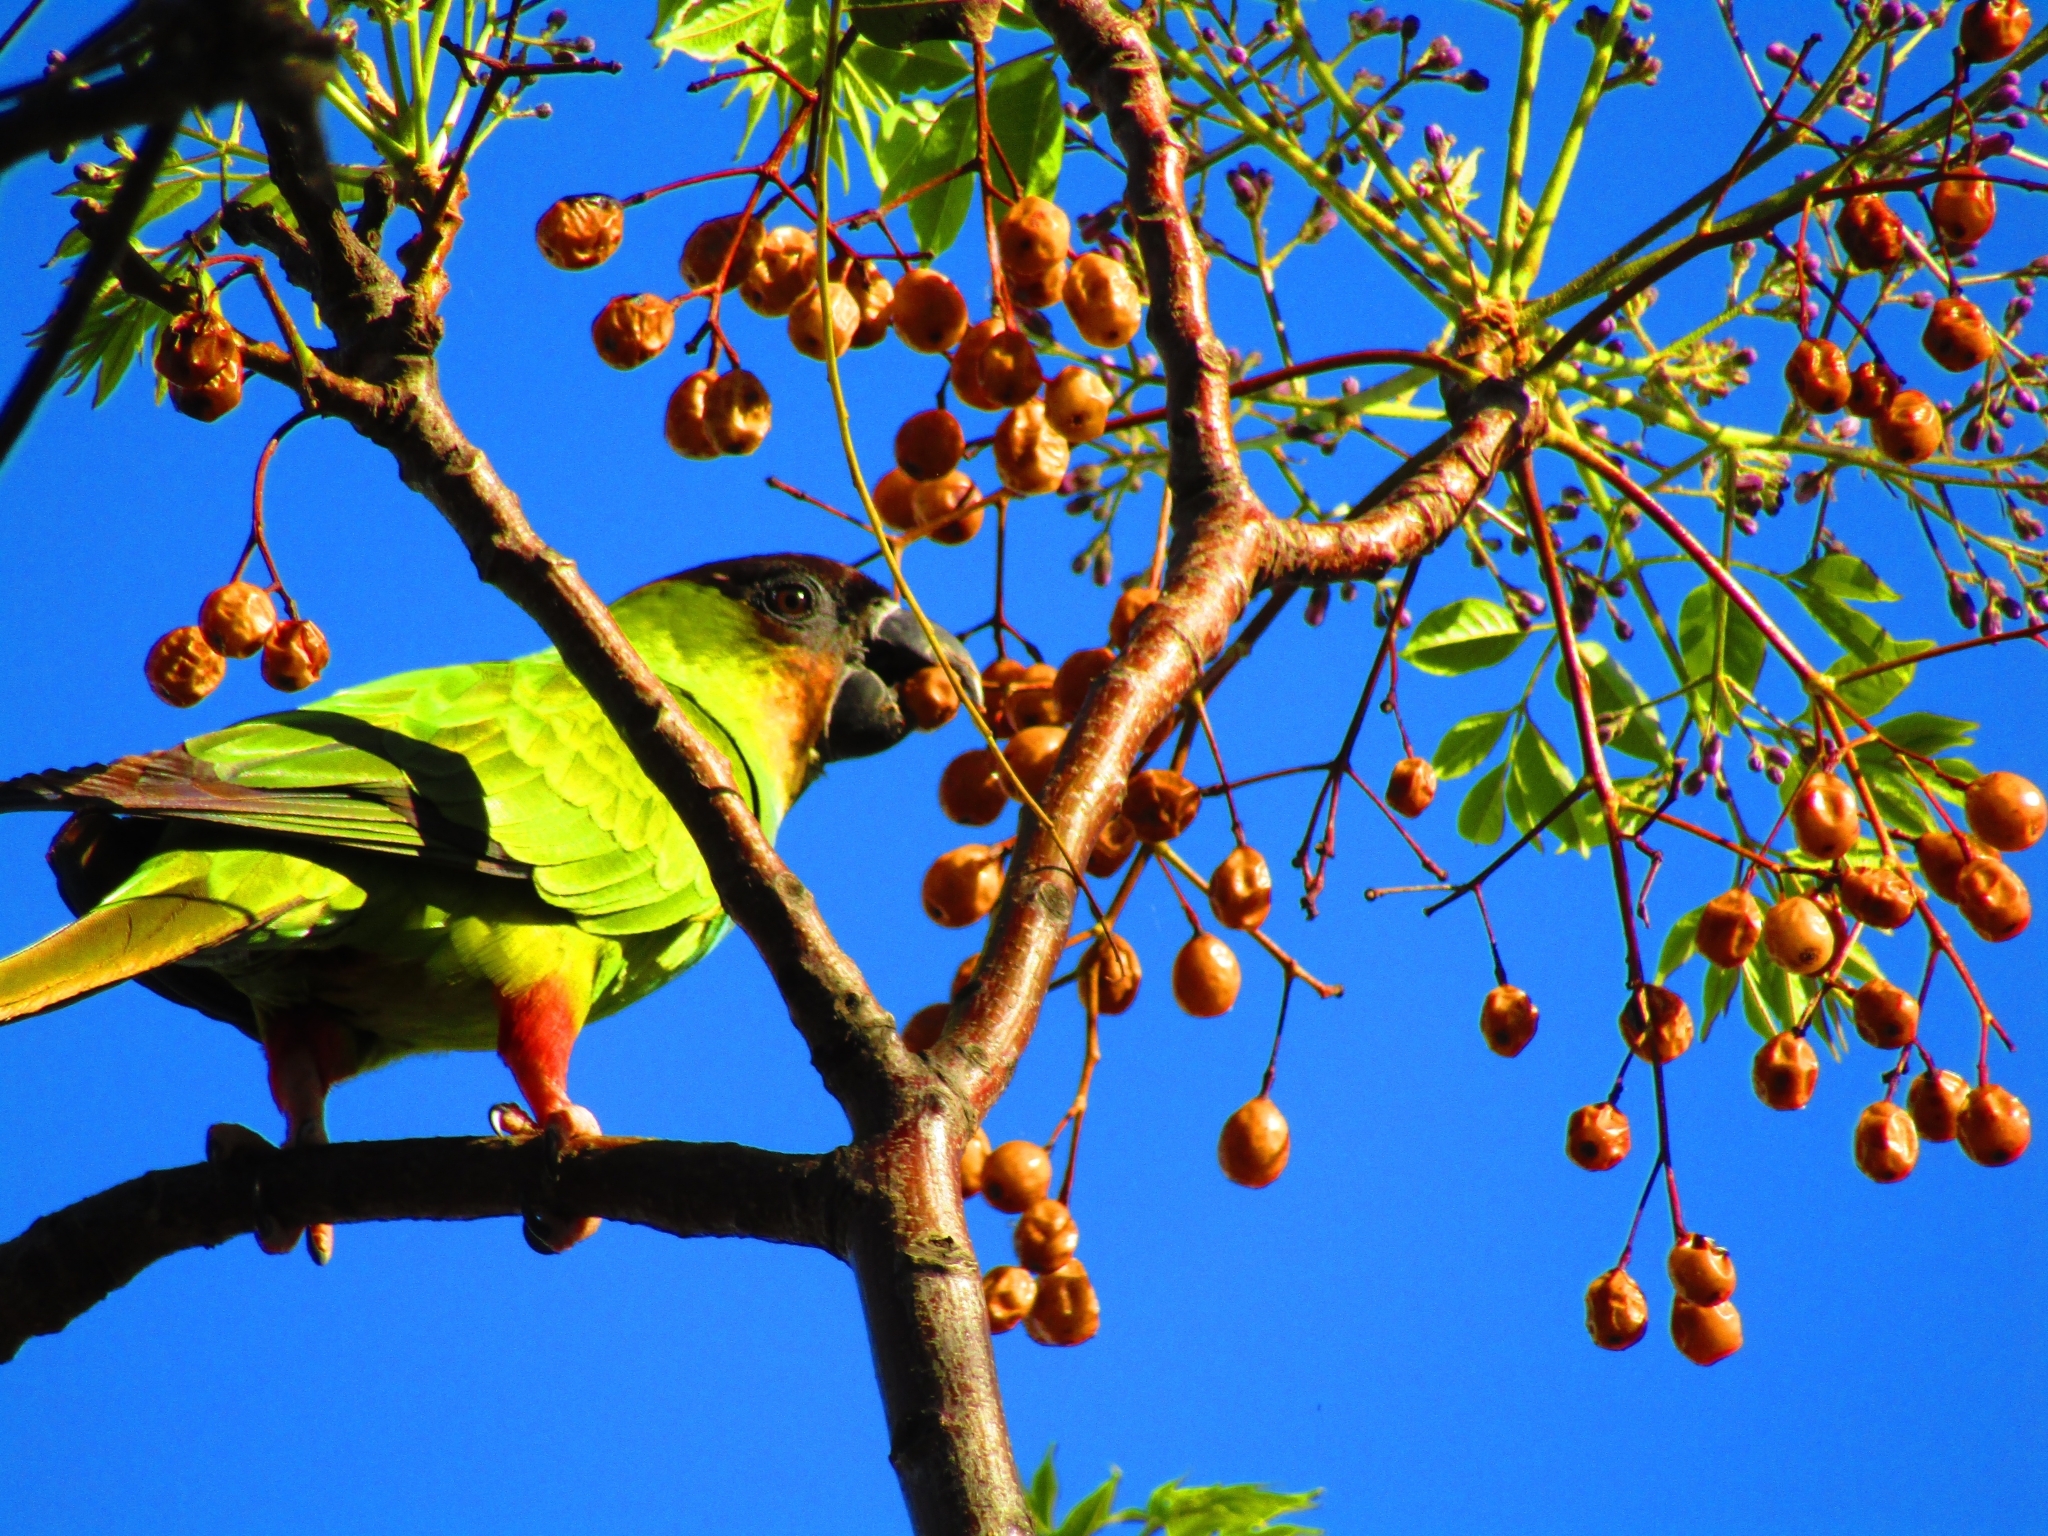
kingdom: Animalia
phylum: Chordata
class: Aves
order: Psittaciformes
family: Psittacidae
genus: Nandayus
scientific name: Nandayus nenday
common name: Nanday parakeet
